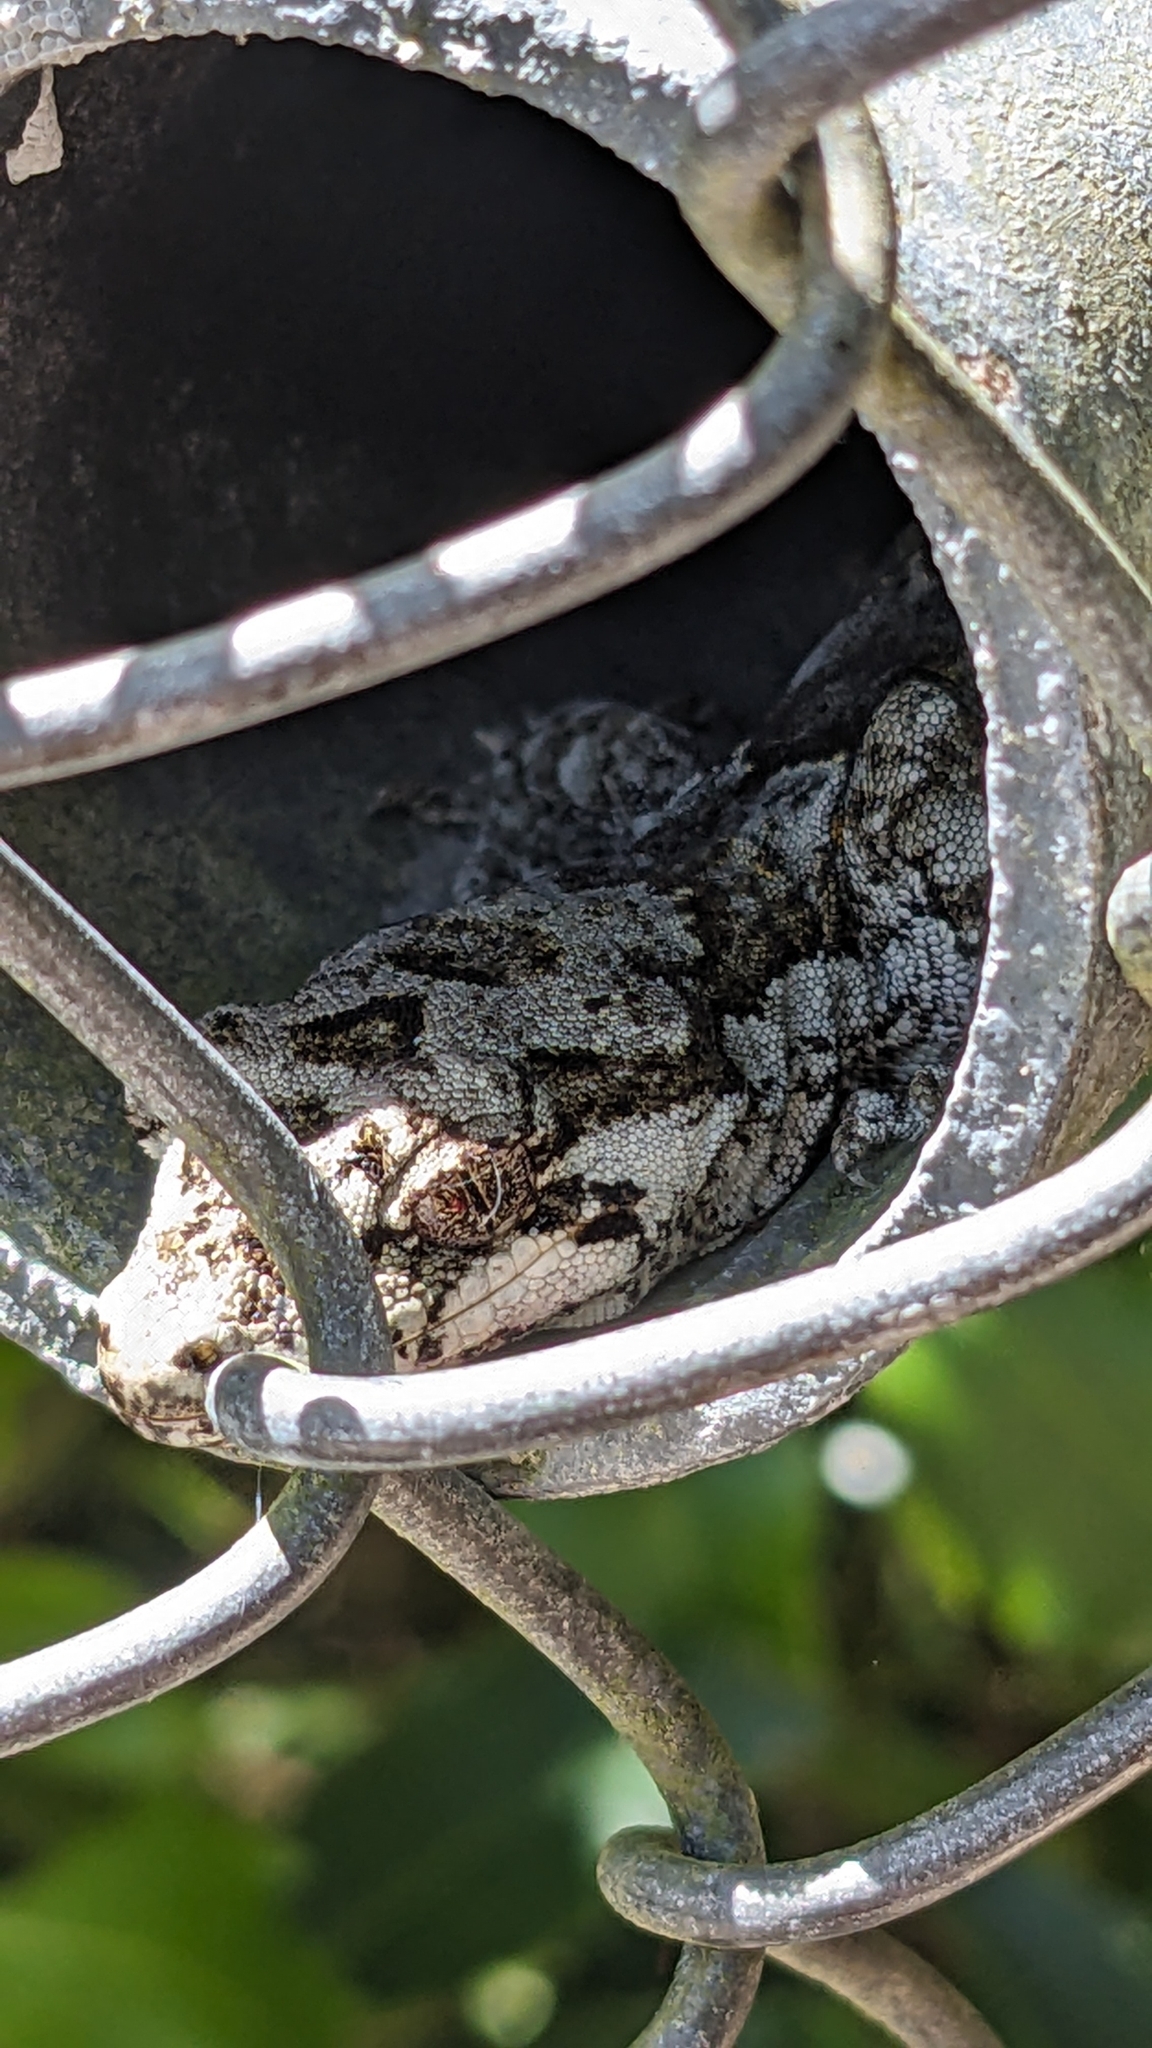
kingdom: Animalia
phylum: Chordata
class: Squamata
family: Diplodactylidae
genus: Mokopirirakau
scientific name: Mokopirirakau
